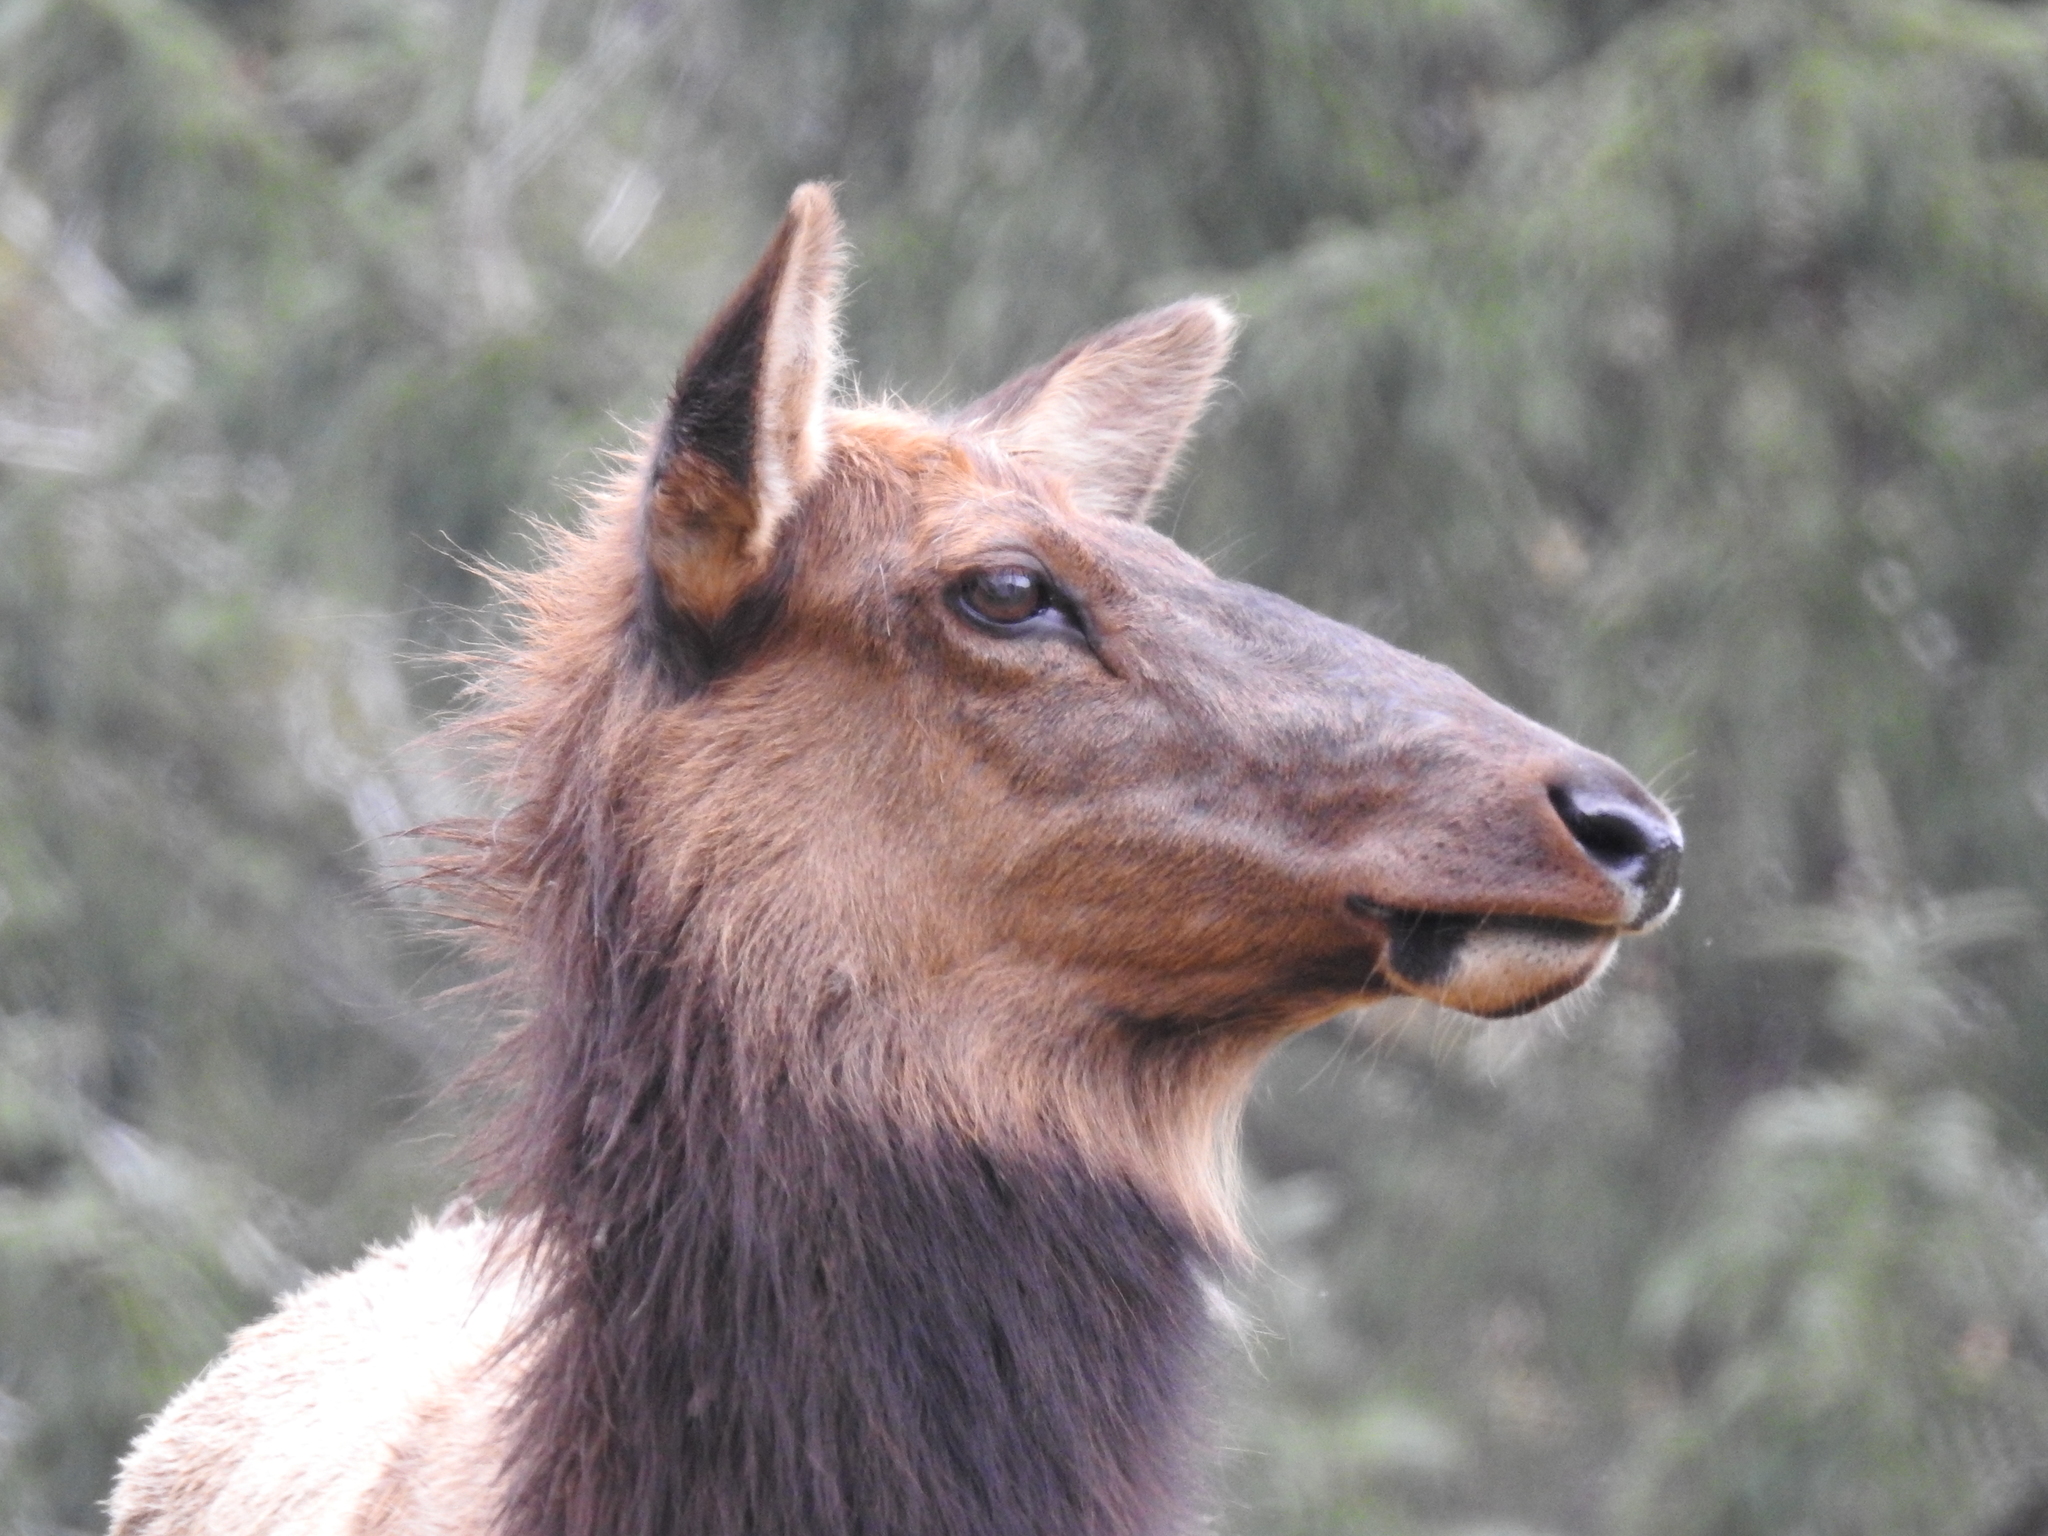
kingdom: Animalia
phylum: Chordata
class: Mammalia
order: Artiodactyla
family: Cervidae
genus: Cervus
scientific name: Cervus elaphus
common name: Red deer
